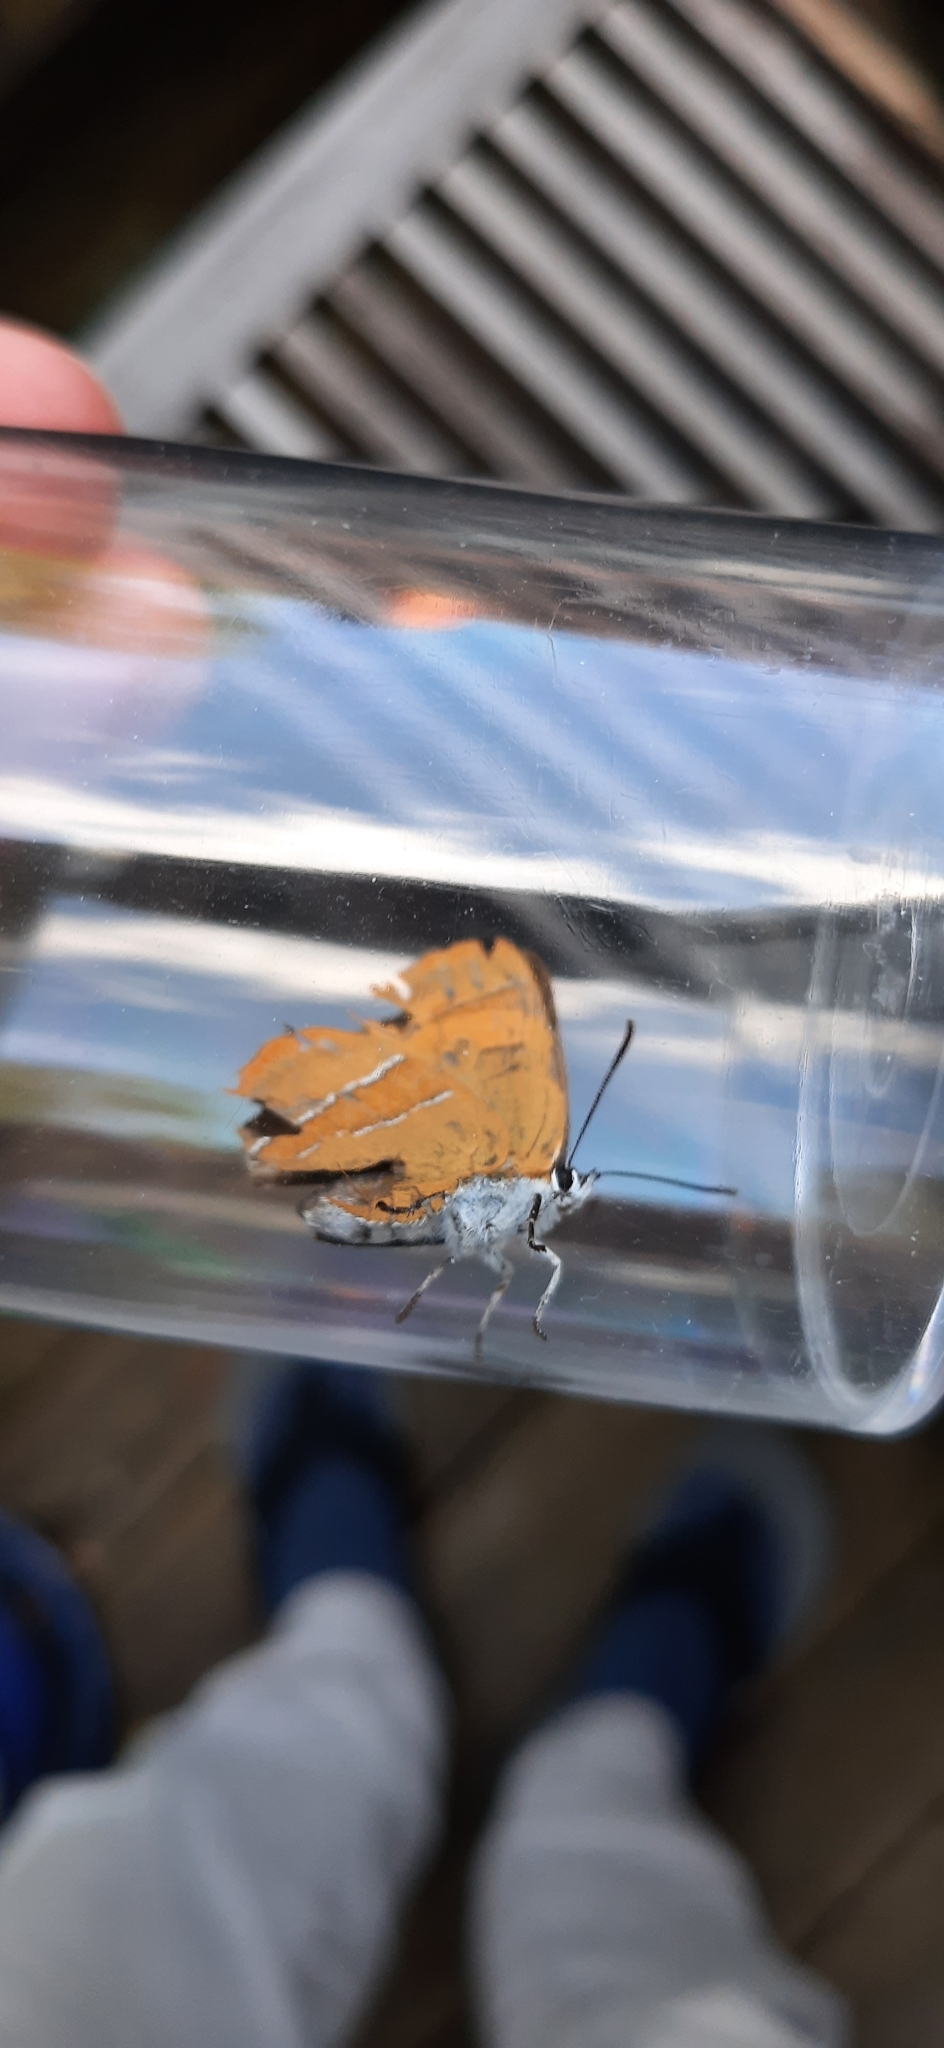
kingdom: Animalia
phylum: Arthropoda
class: Insecta
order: Lepidoptera
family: Lycaenidae
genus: Thecla
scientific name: Thecla betulae
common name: Brown hairstreak
